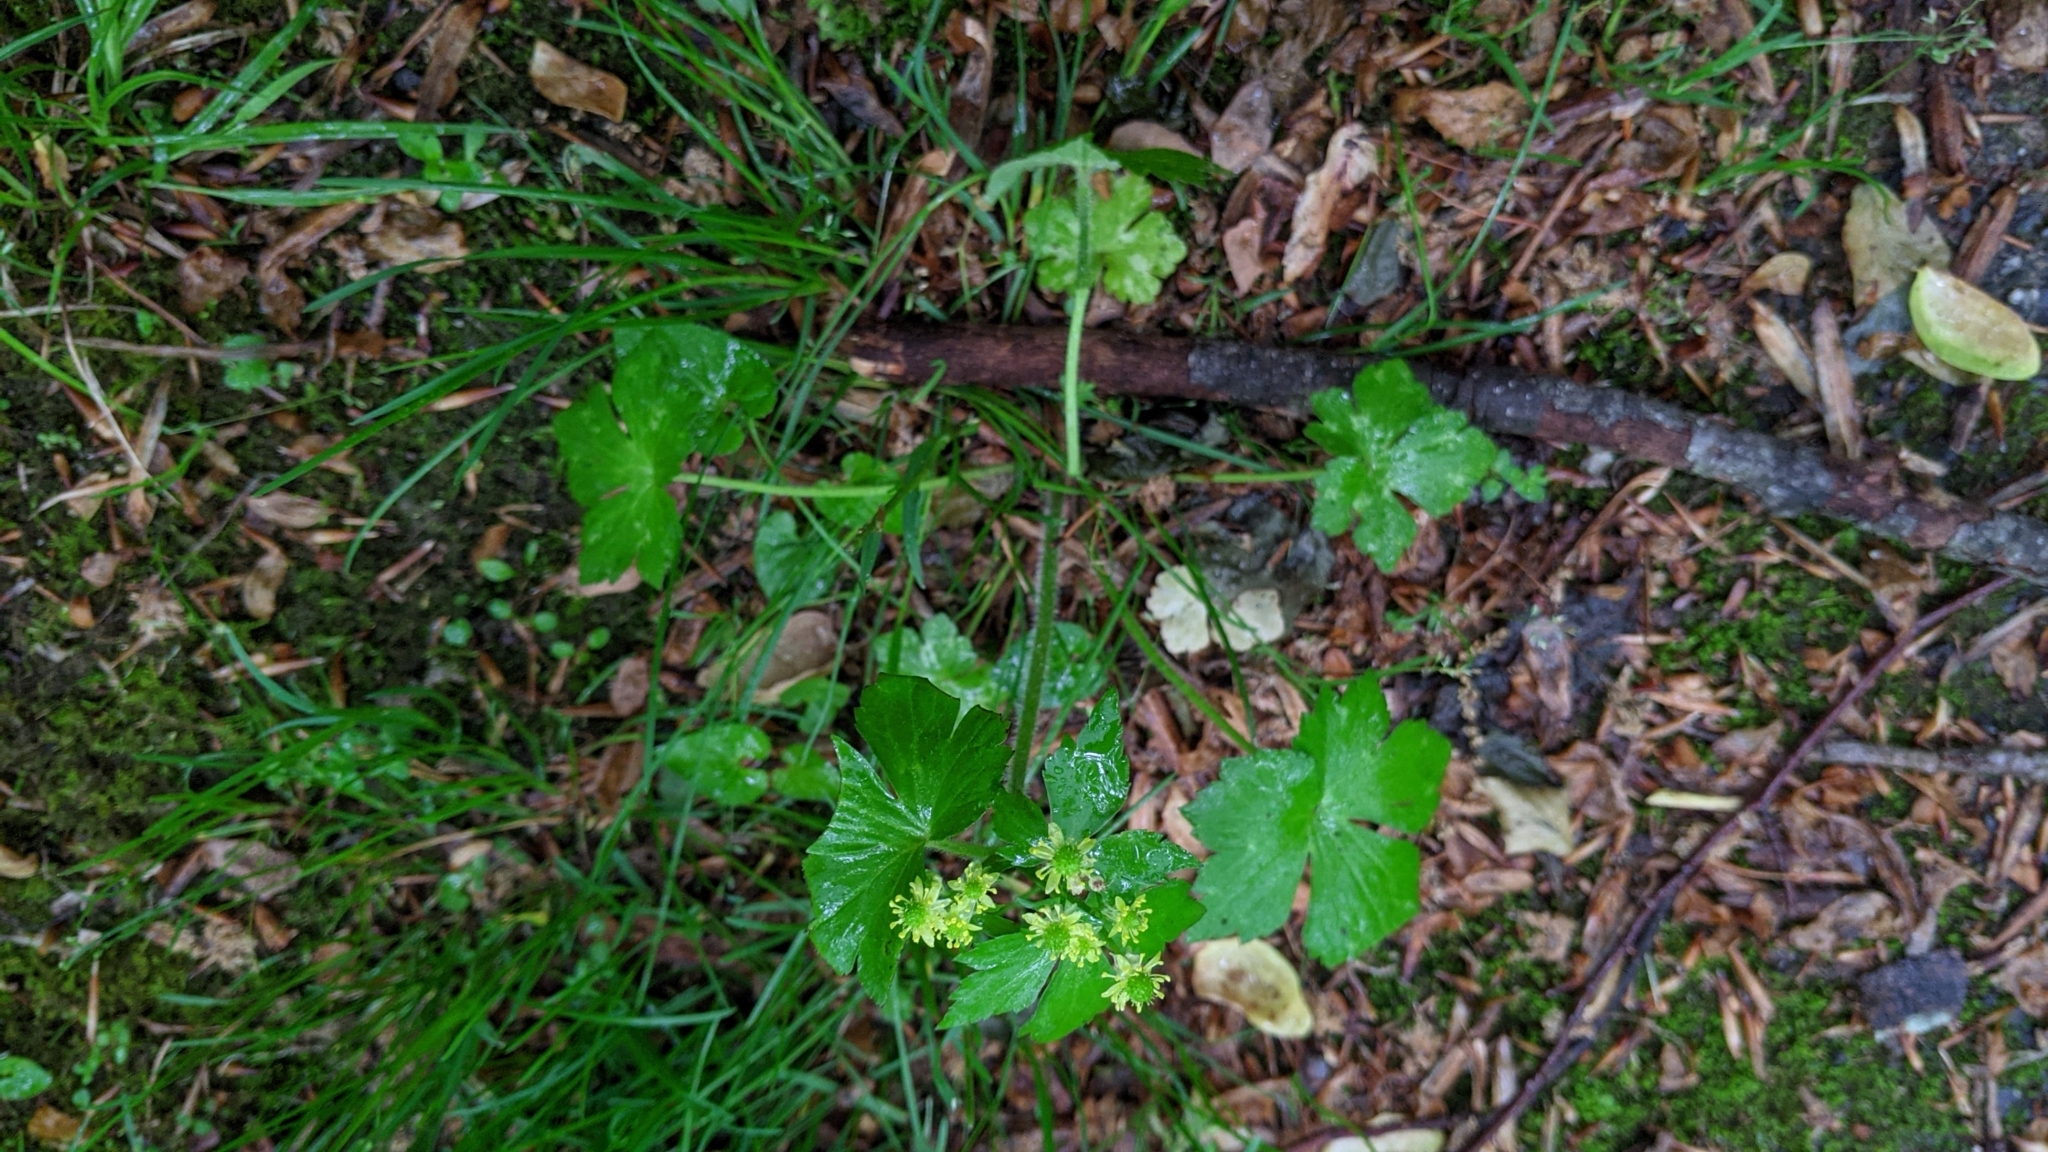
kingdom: Plantae
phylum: Tracheophyta
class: Magnoliopsida
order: Ranunculales
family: Ranunculaceae
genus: Ranunculus
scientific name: Ranunculus recurvatus
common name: Blisterwort
